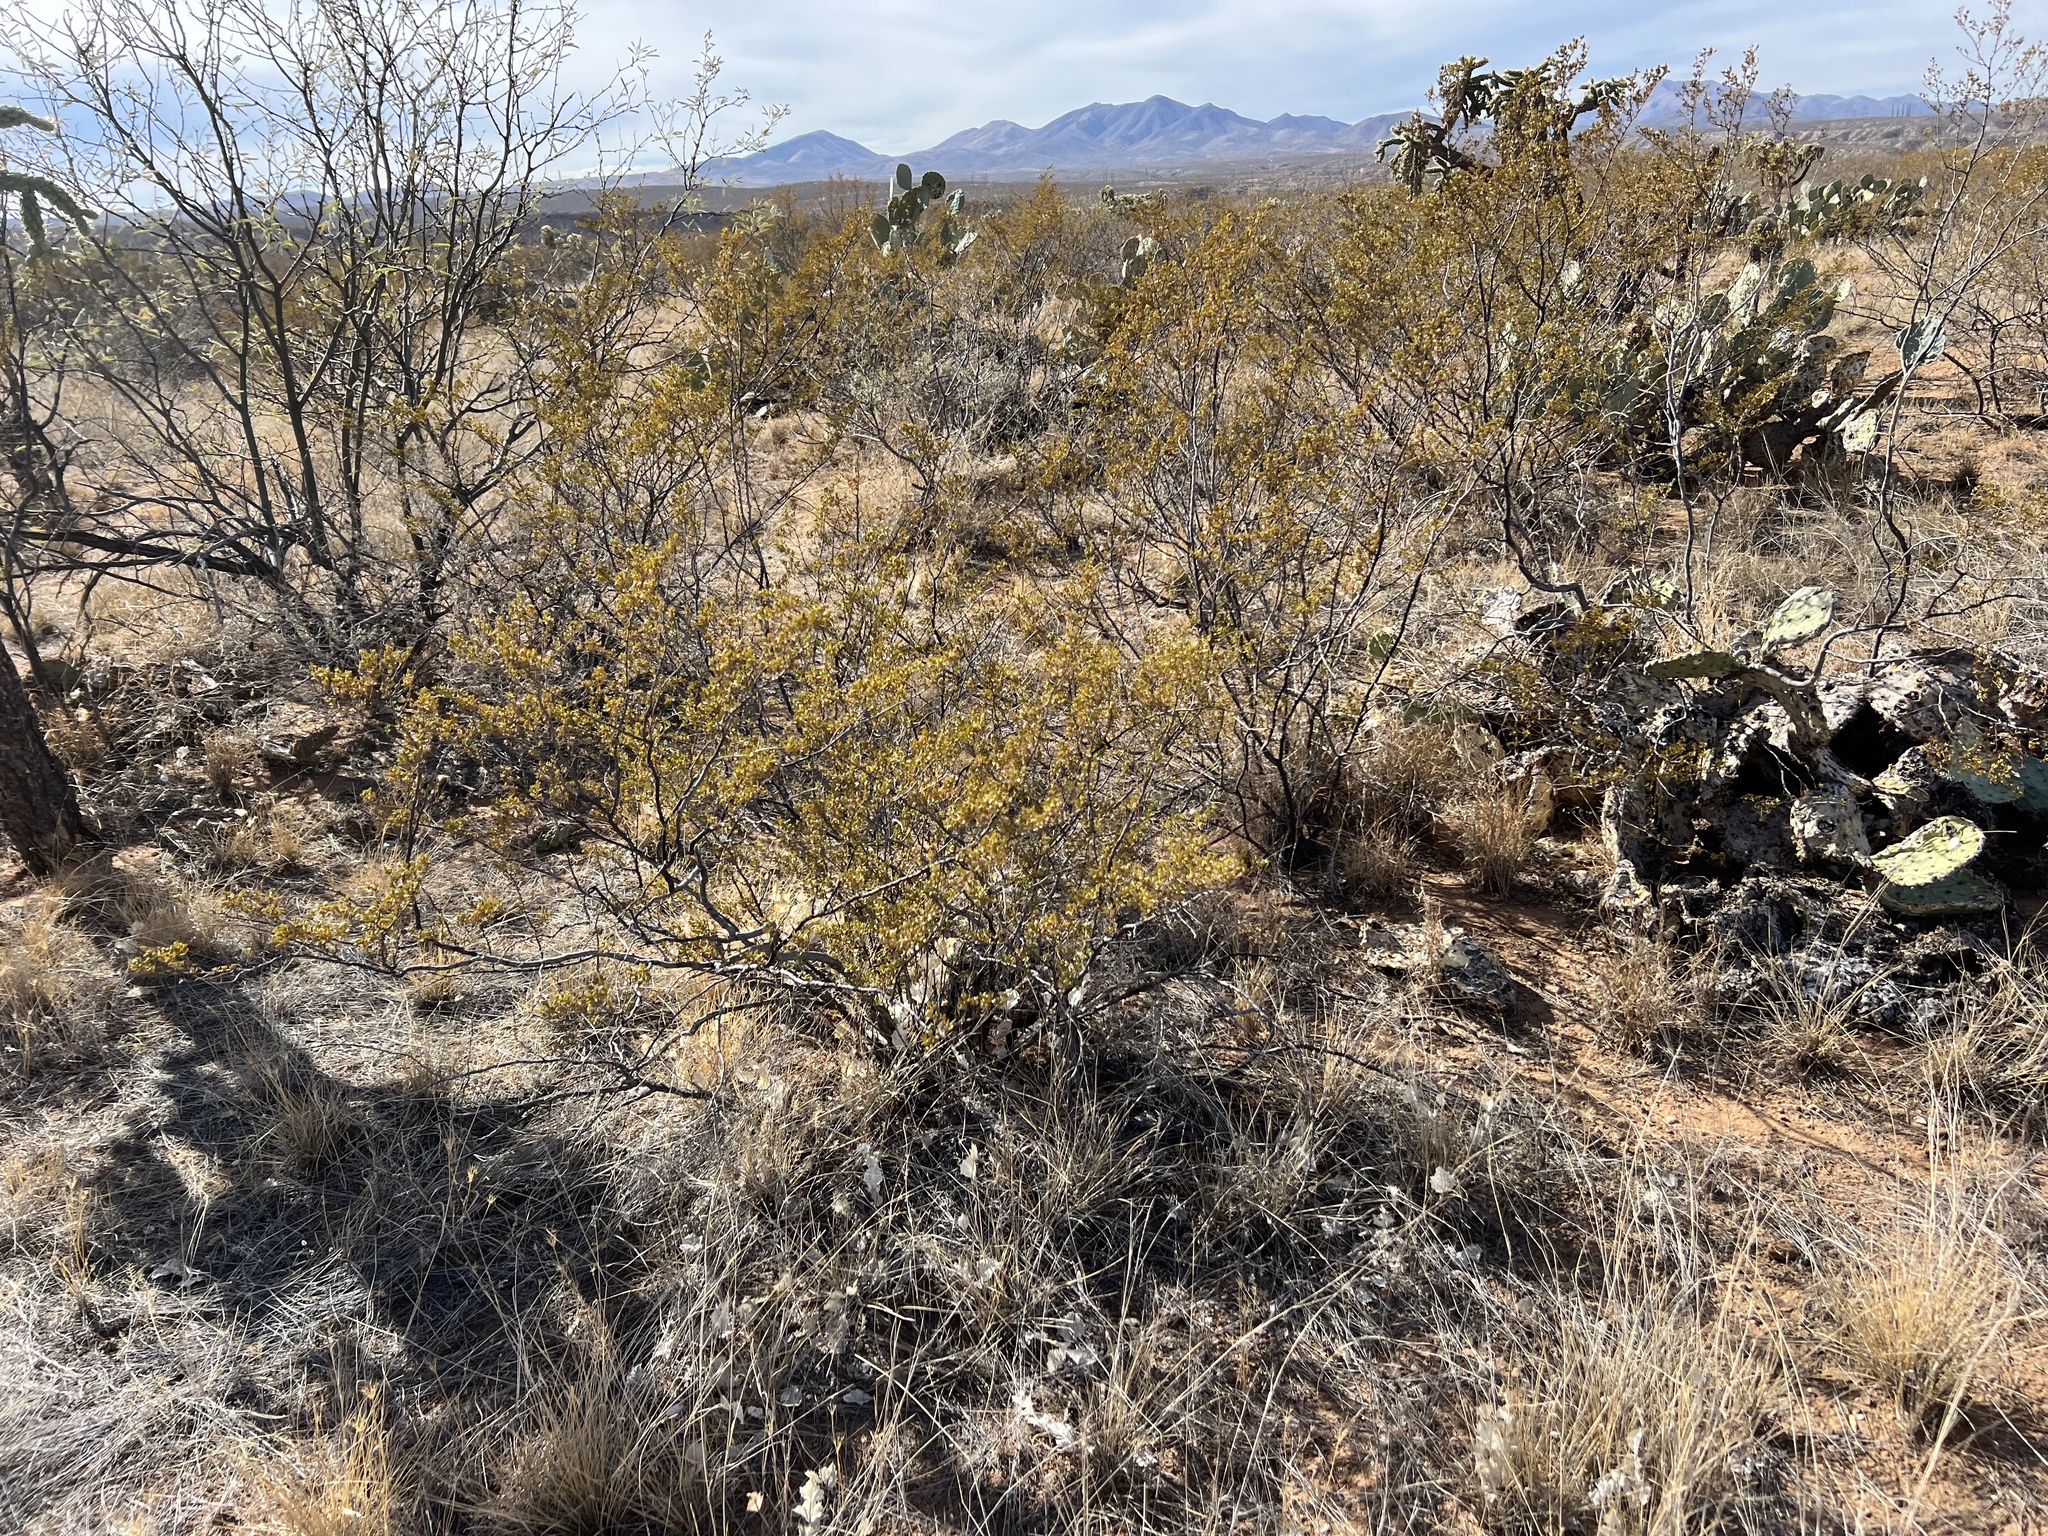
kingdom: Plantae
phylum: Tracheophyta
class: Magnoliopsida
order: Zygophyllales
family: Zygophyllaceae
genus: Larrea
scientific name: Larrea tridentata
